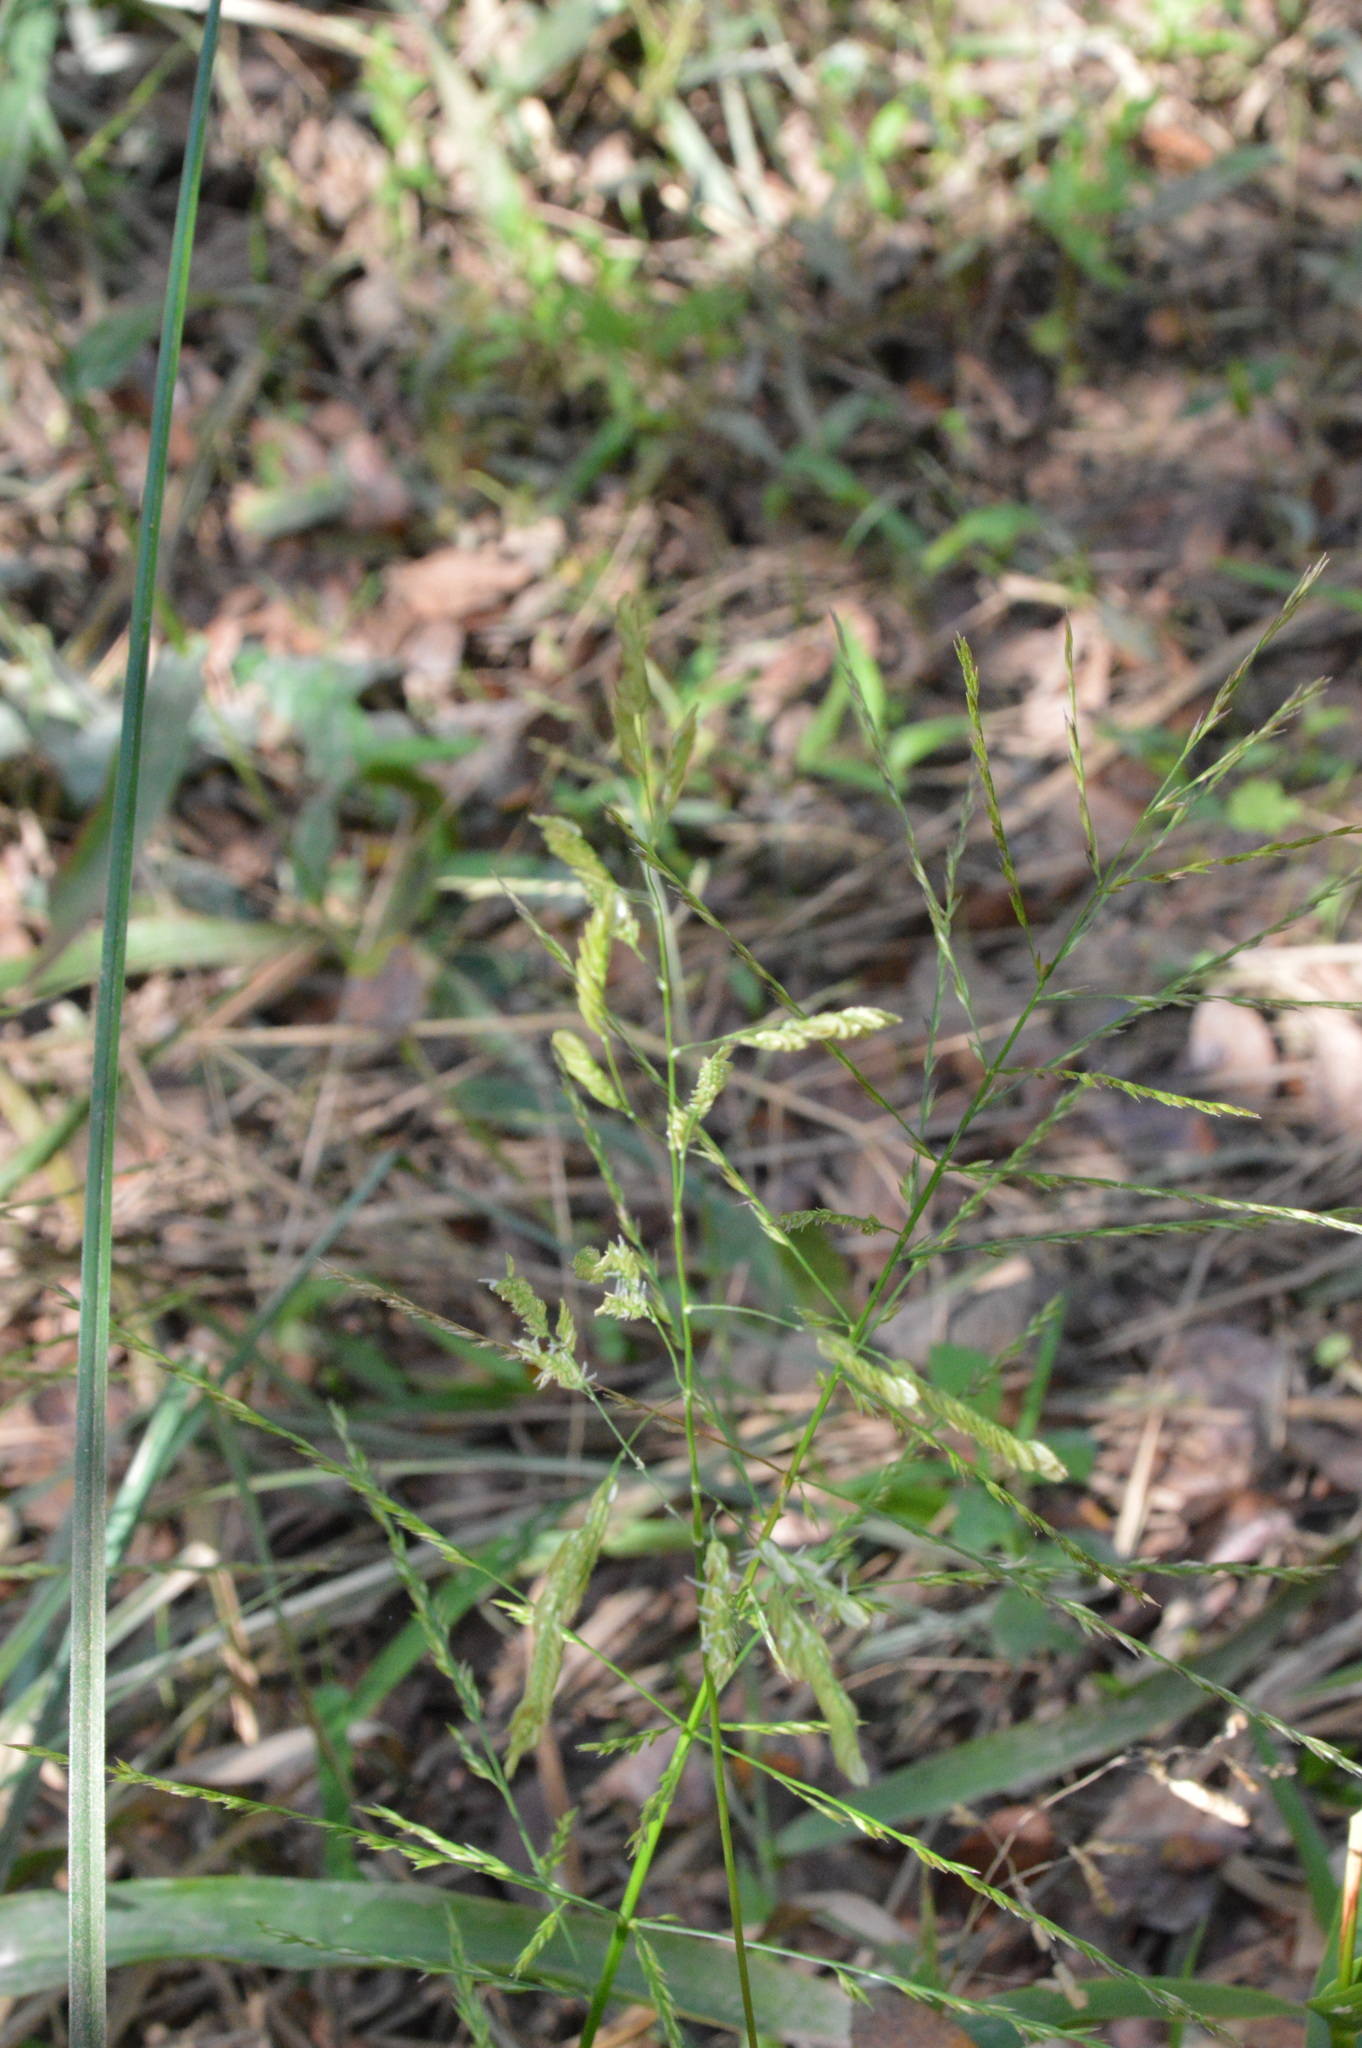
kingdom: Plantae
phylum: Tracheophyta
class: Liliopsida
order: Poales
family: Poaceae
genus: Leersia
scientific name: Leersia lenticularis
